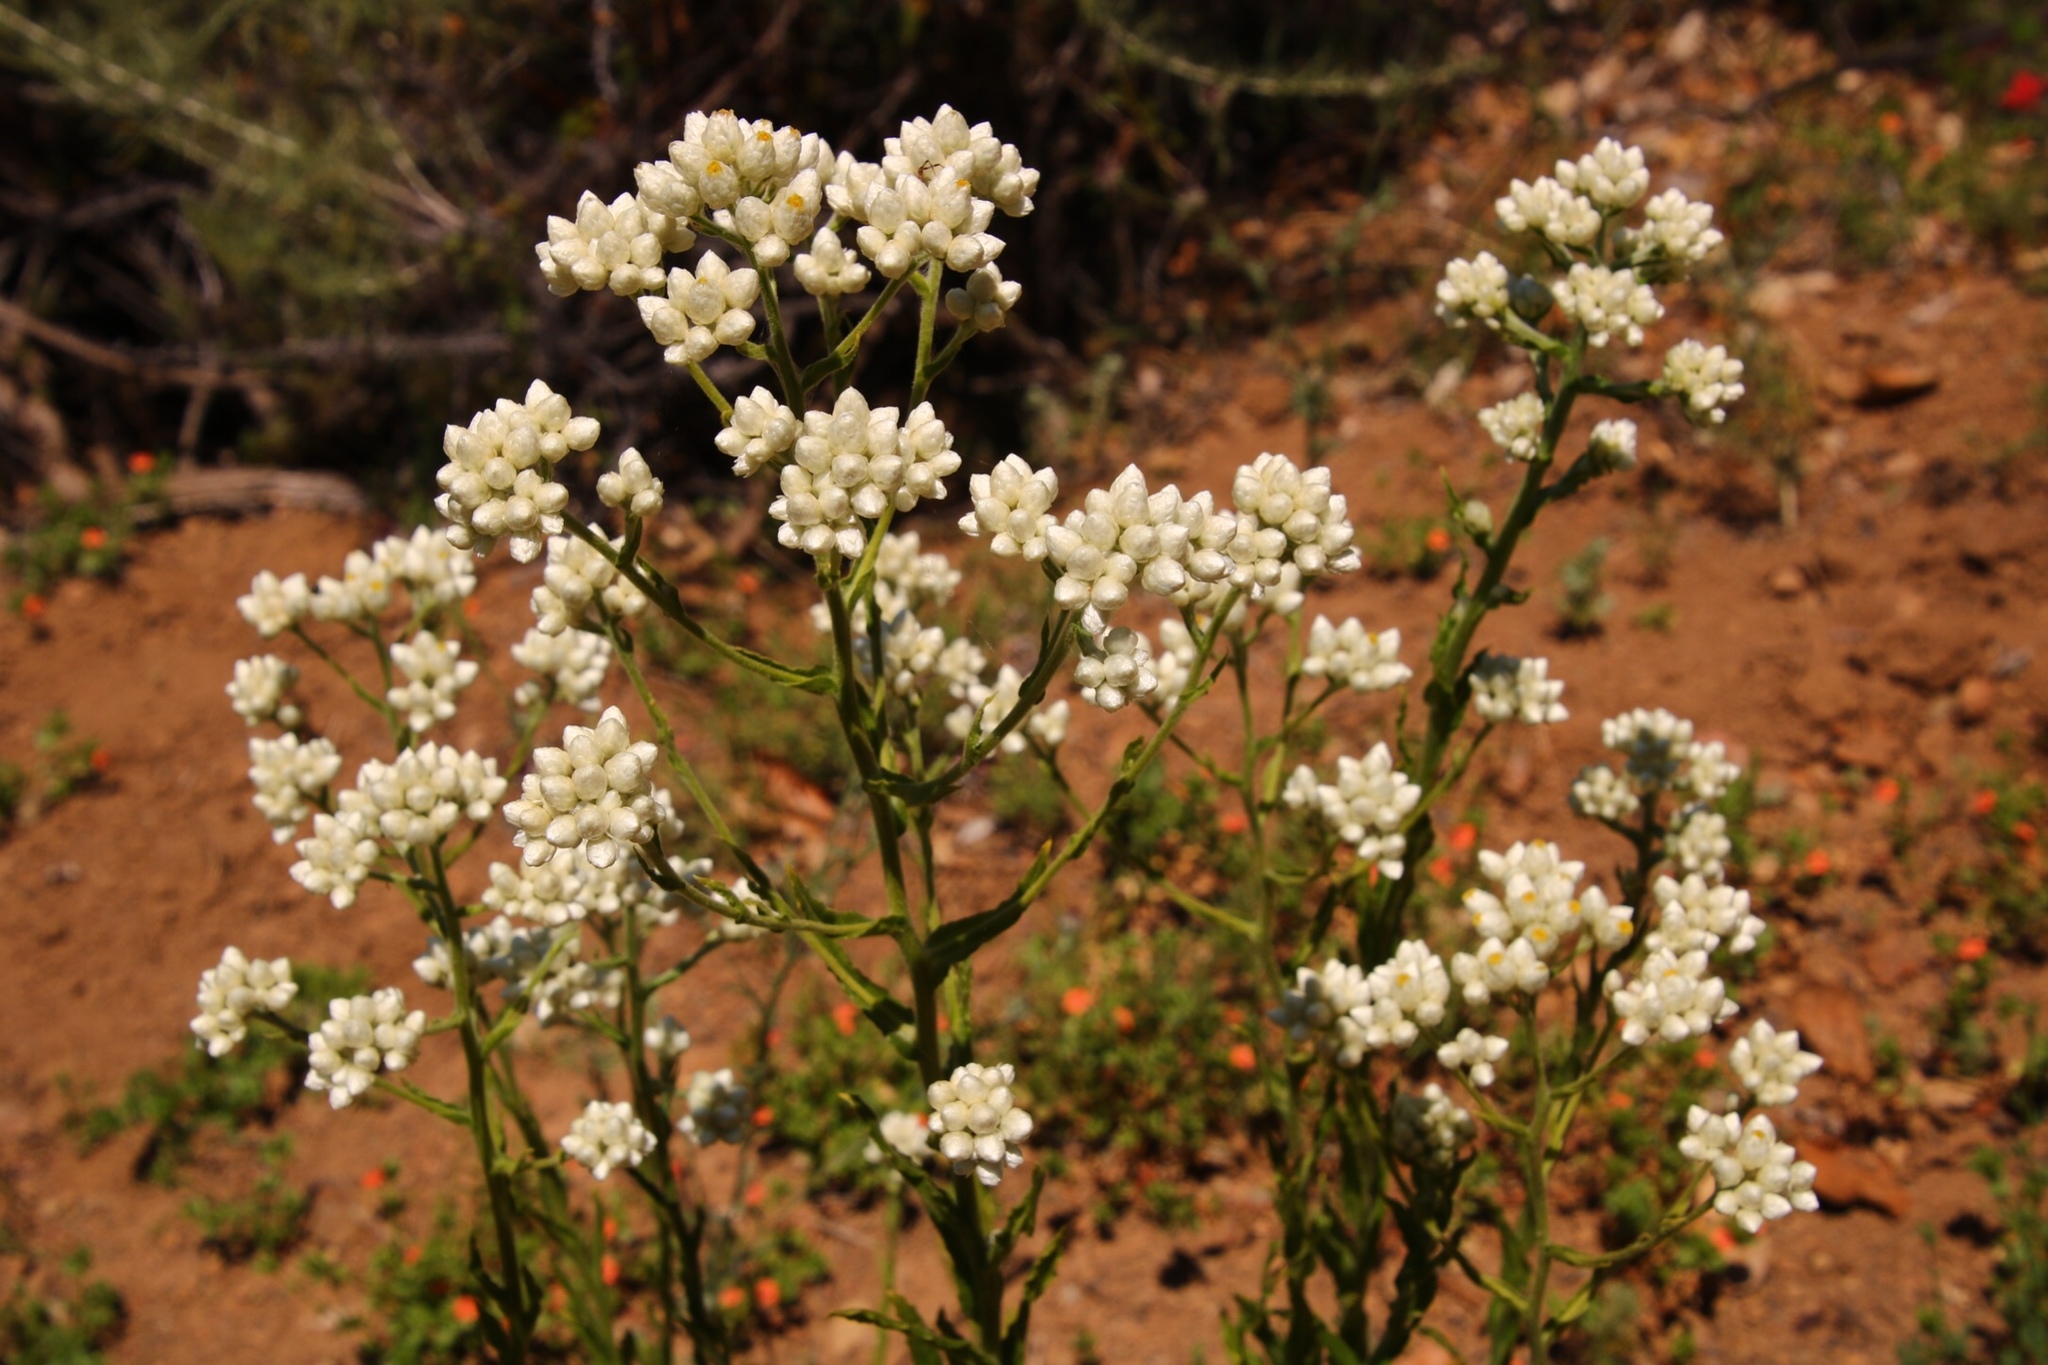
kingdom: Plantae
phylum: Tracheophyta
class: Magnoliopsida
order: Asterales
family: Asteraceae
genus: Pseudognaphalium
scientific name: Pseudognaphalium californicum
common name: California rabbit-tobacco
